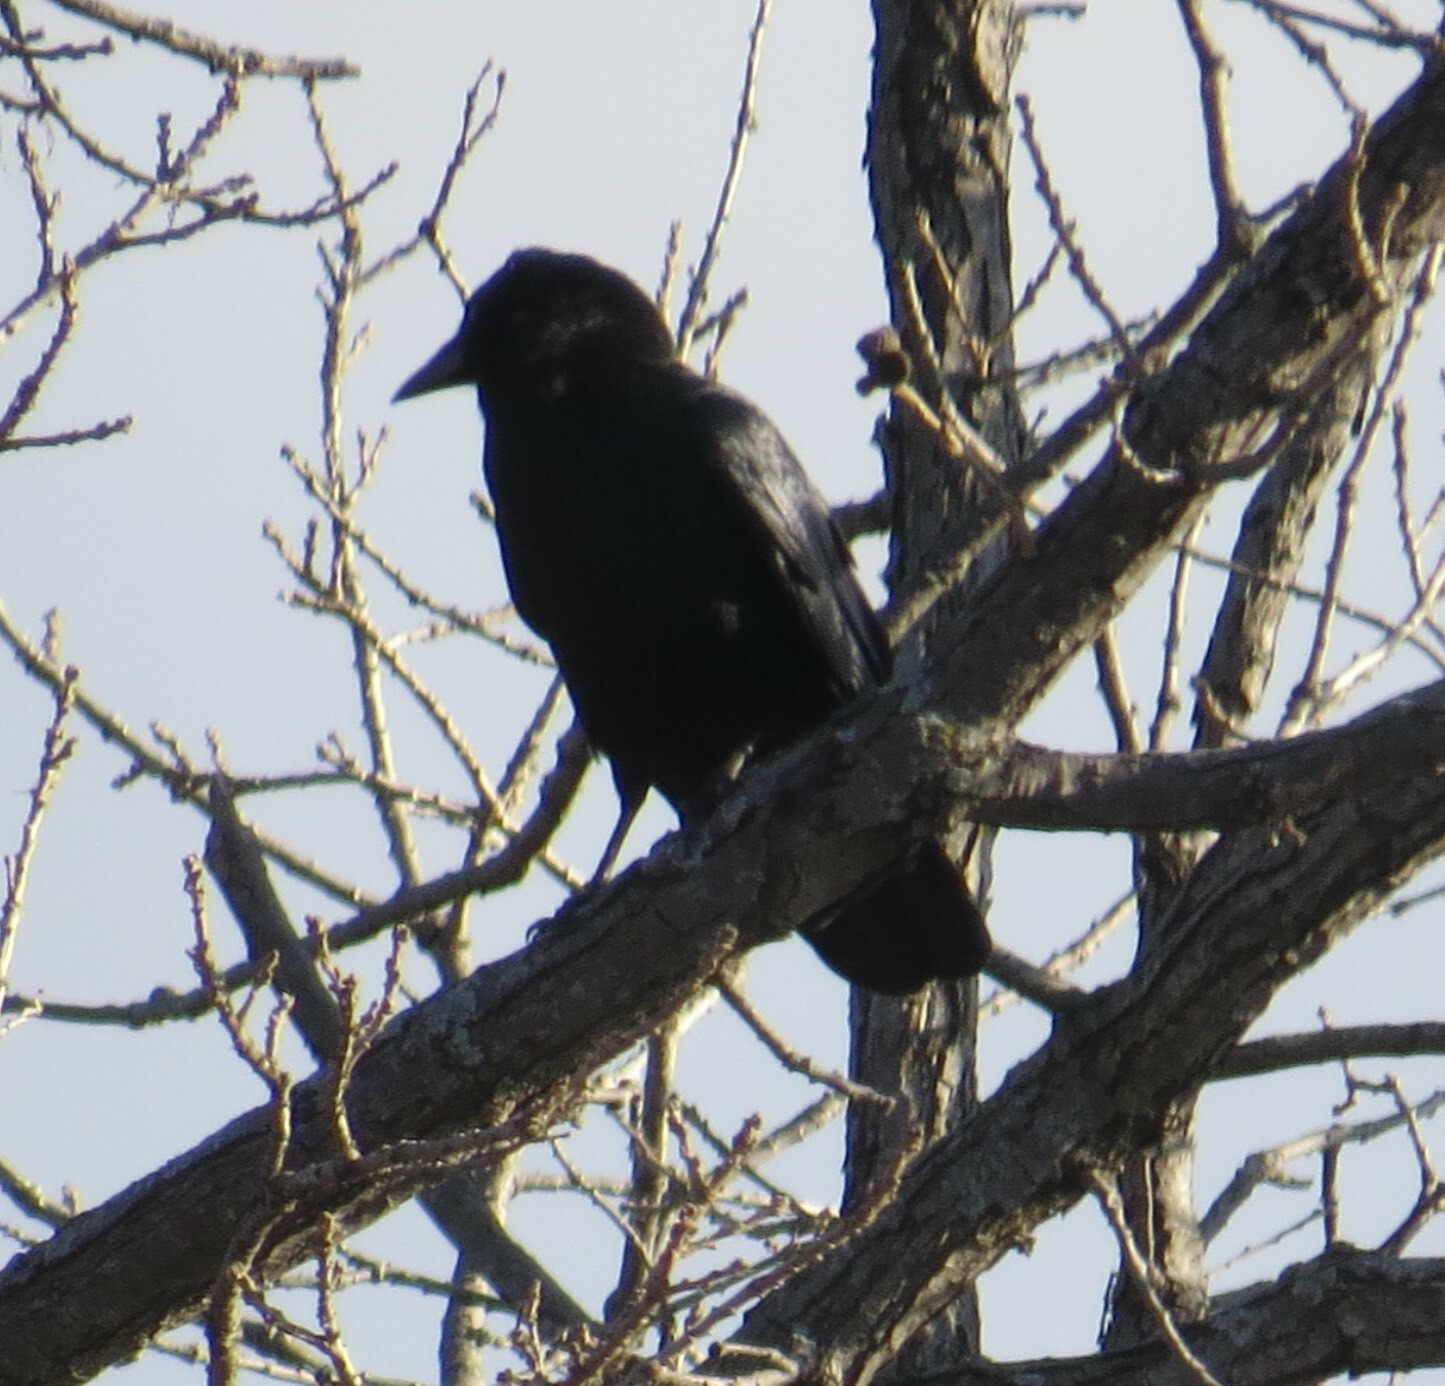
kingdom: Animalia
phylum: Chordata
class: Aves
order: Passeriformes
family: Corvidae
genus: Corvus
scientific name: Corvus brachyrhynchos
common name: American crow
